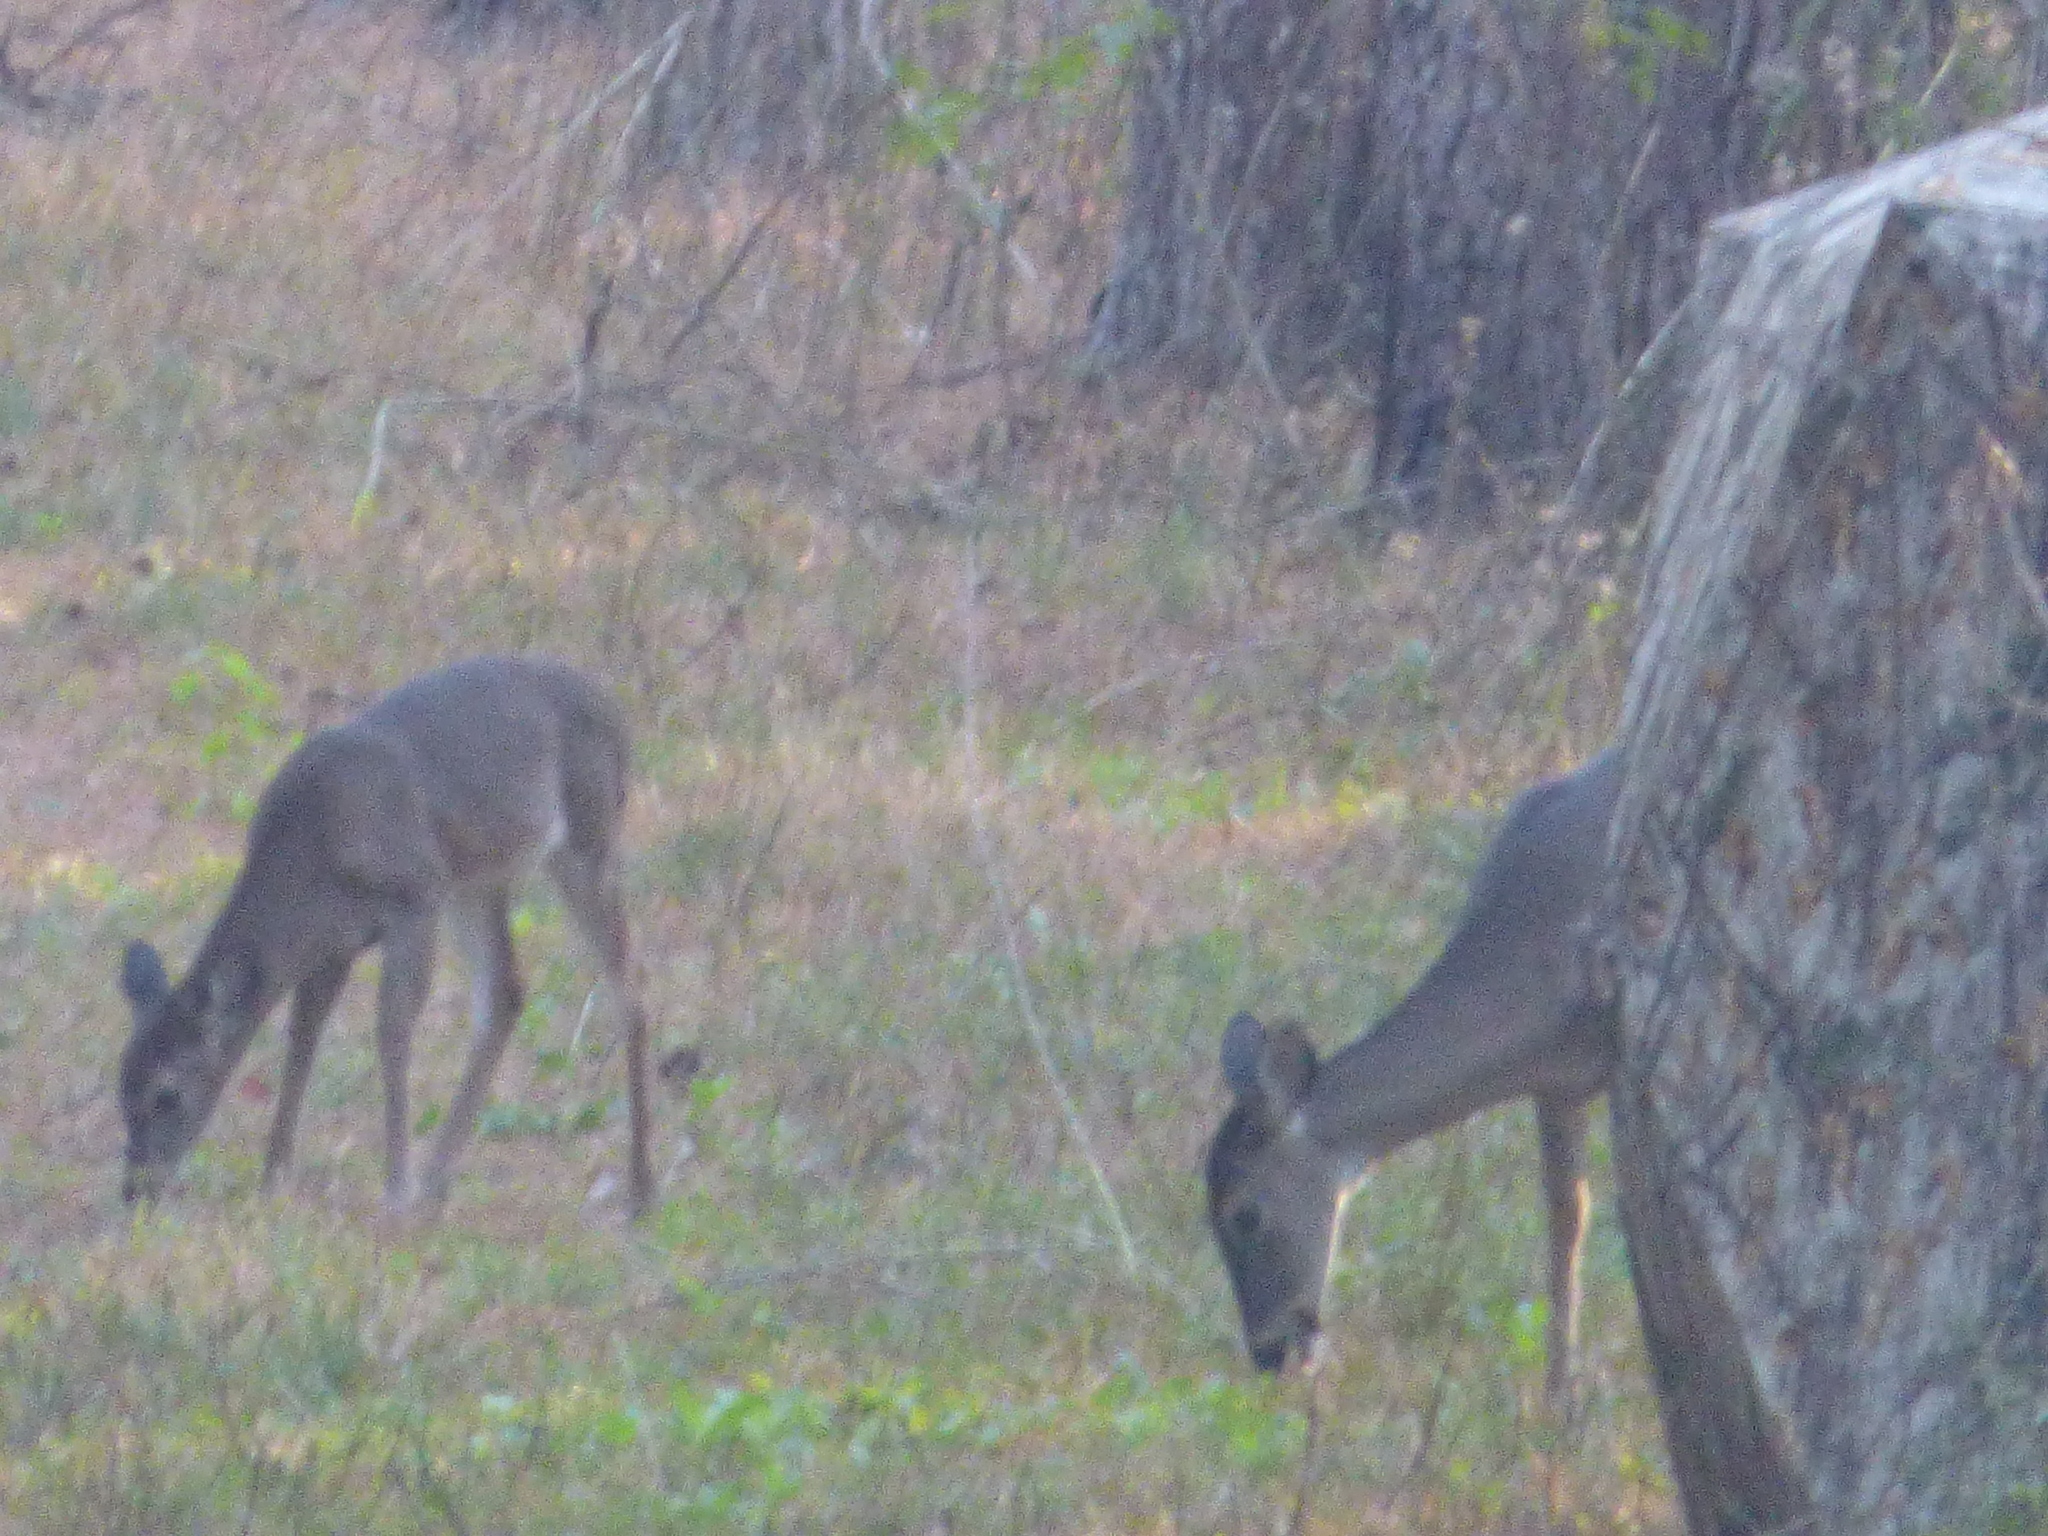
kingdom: Animalia
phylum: Chordata
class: Mammalia
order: Artiodactyla
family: Cervidae
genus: Odocoileus
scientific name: Odocoileus virginianus
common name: White-tailed deer
